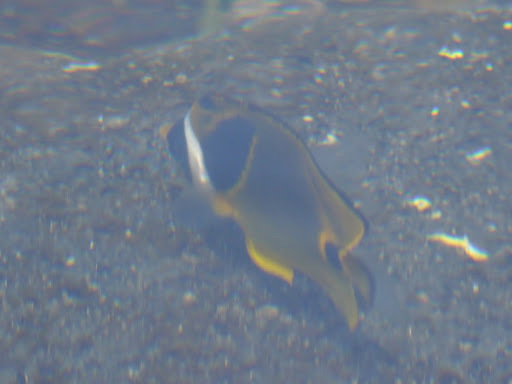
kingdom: Animalia
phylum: Chordata
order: Perciformes
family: Chaetodontidae
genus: Chaetodon
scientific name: Chaetodon lunula
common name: Raccoon butterflyfish
